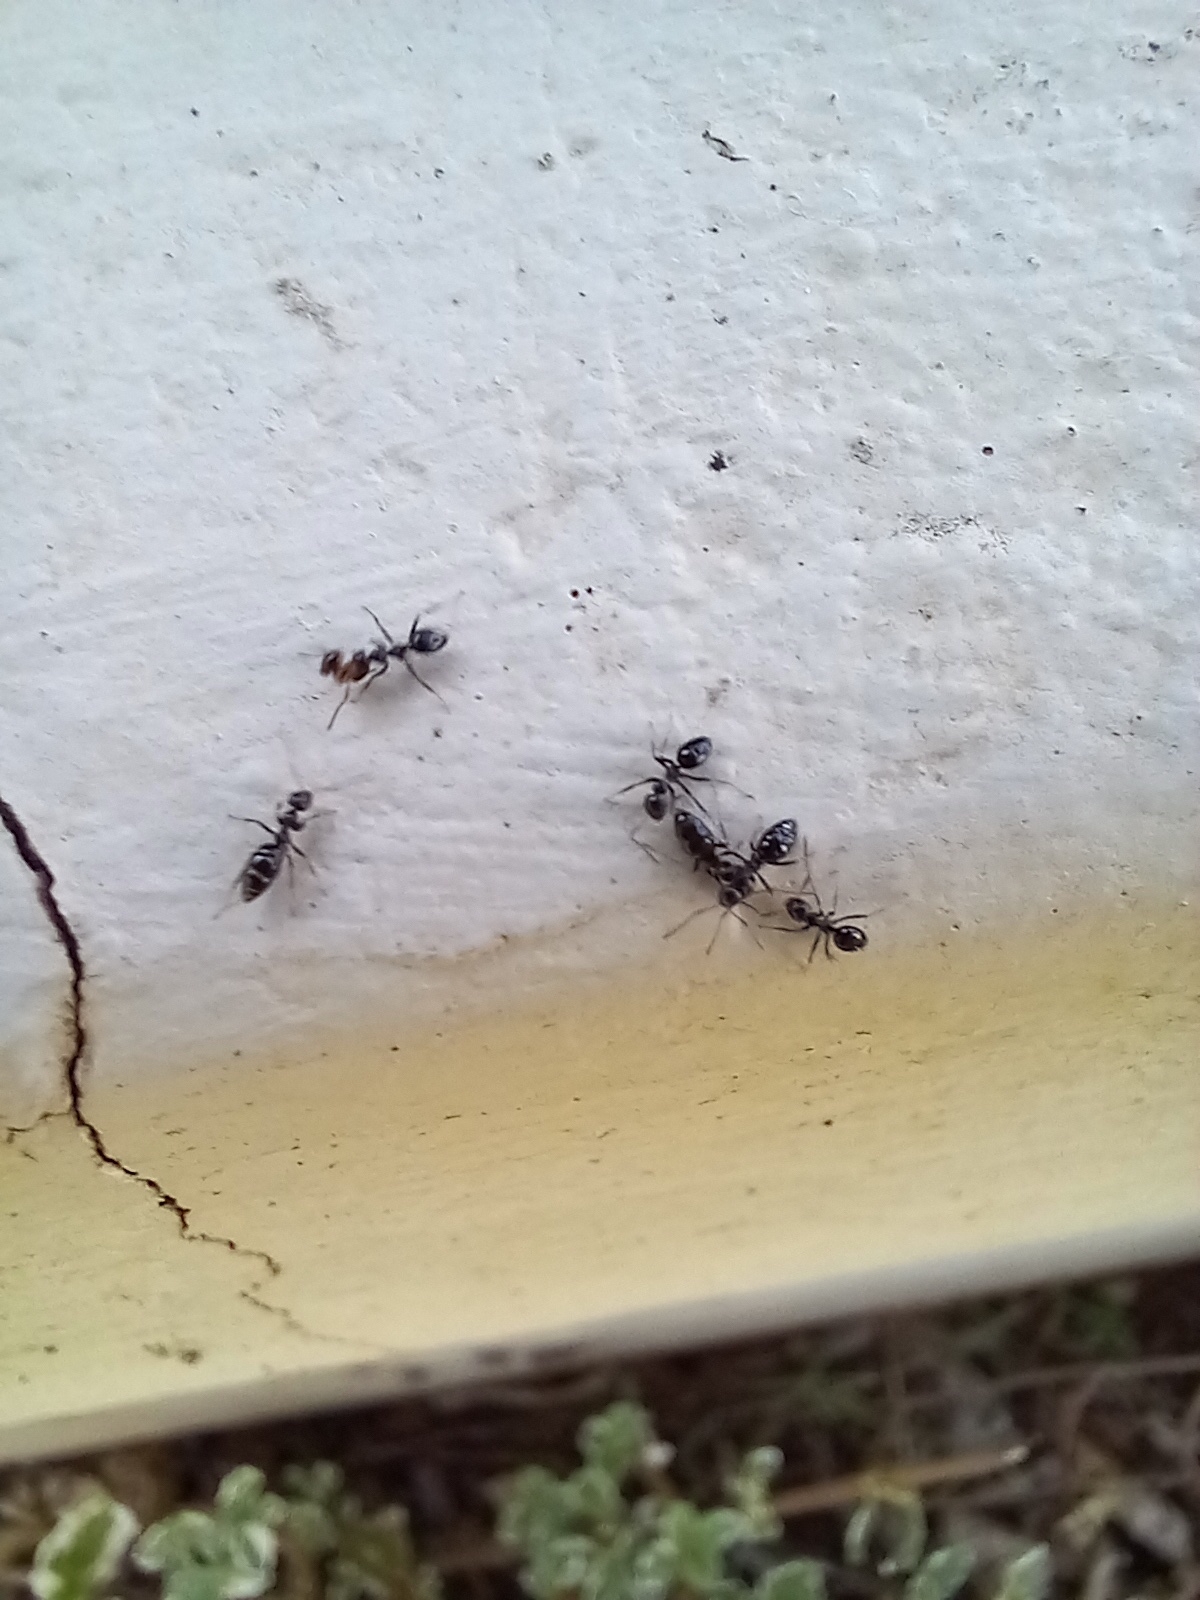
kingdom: Animalia
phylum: Arthropoda
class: Insecta
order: Hymenoptera
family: Formicidae
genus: Lepisiota
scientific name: Lepisiota capensis
